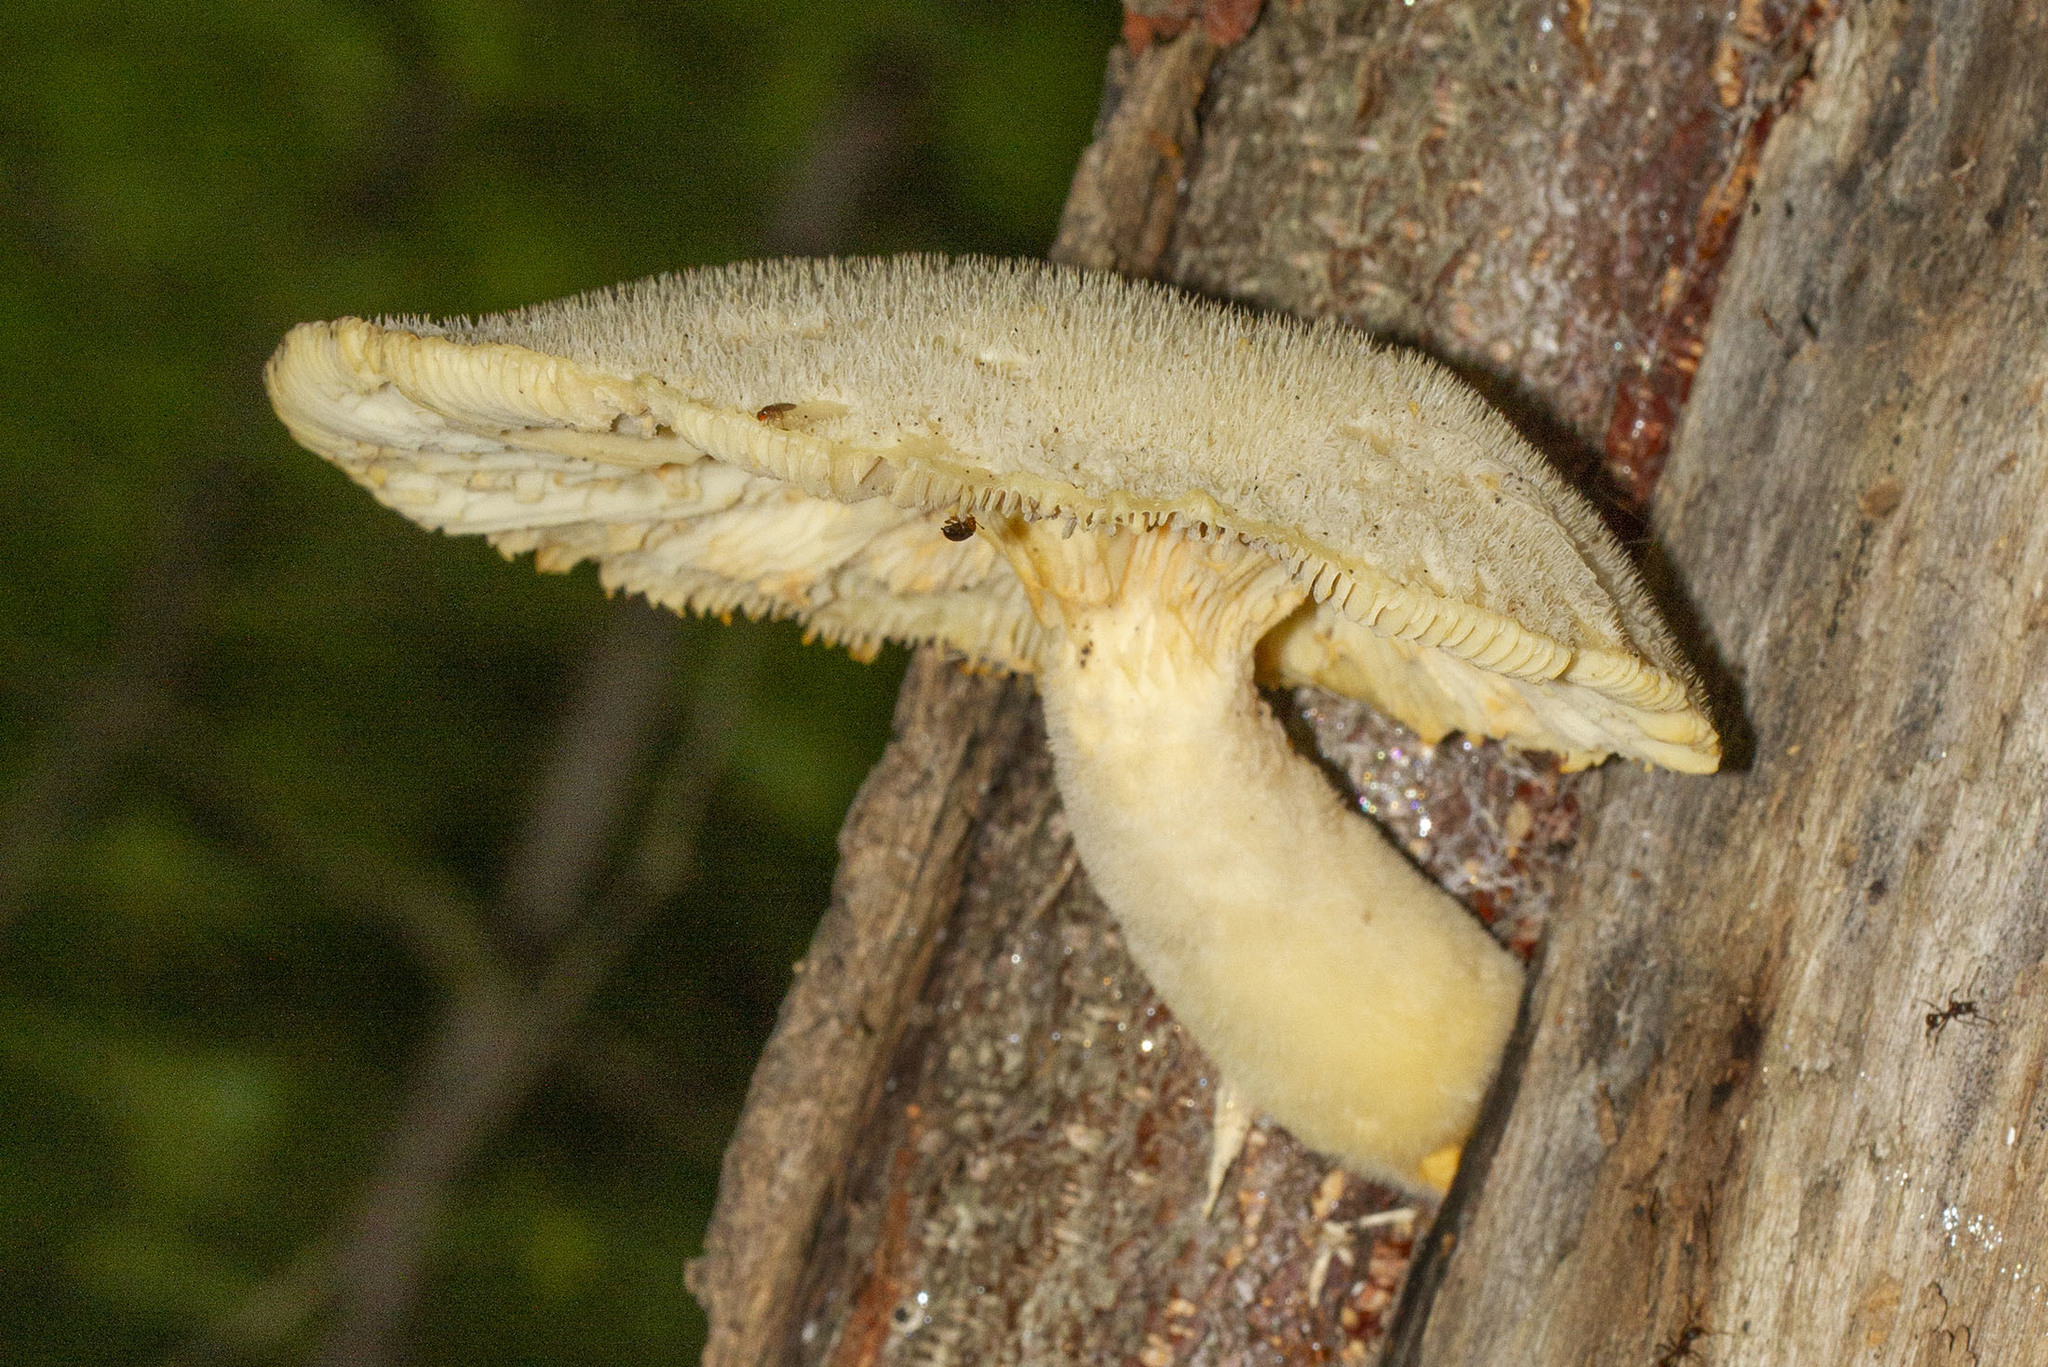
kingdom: Fungi
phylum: Basidiomycota
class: Agaricomycetes
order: Polyporales
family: Polyporaceae
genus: Lentinus
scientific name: Lentinus levis
